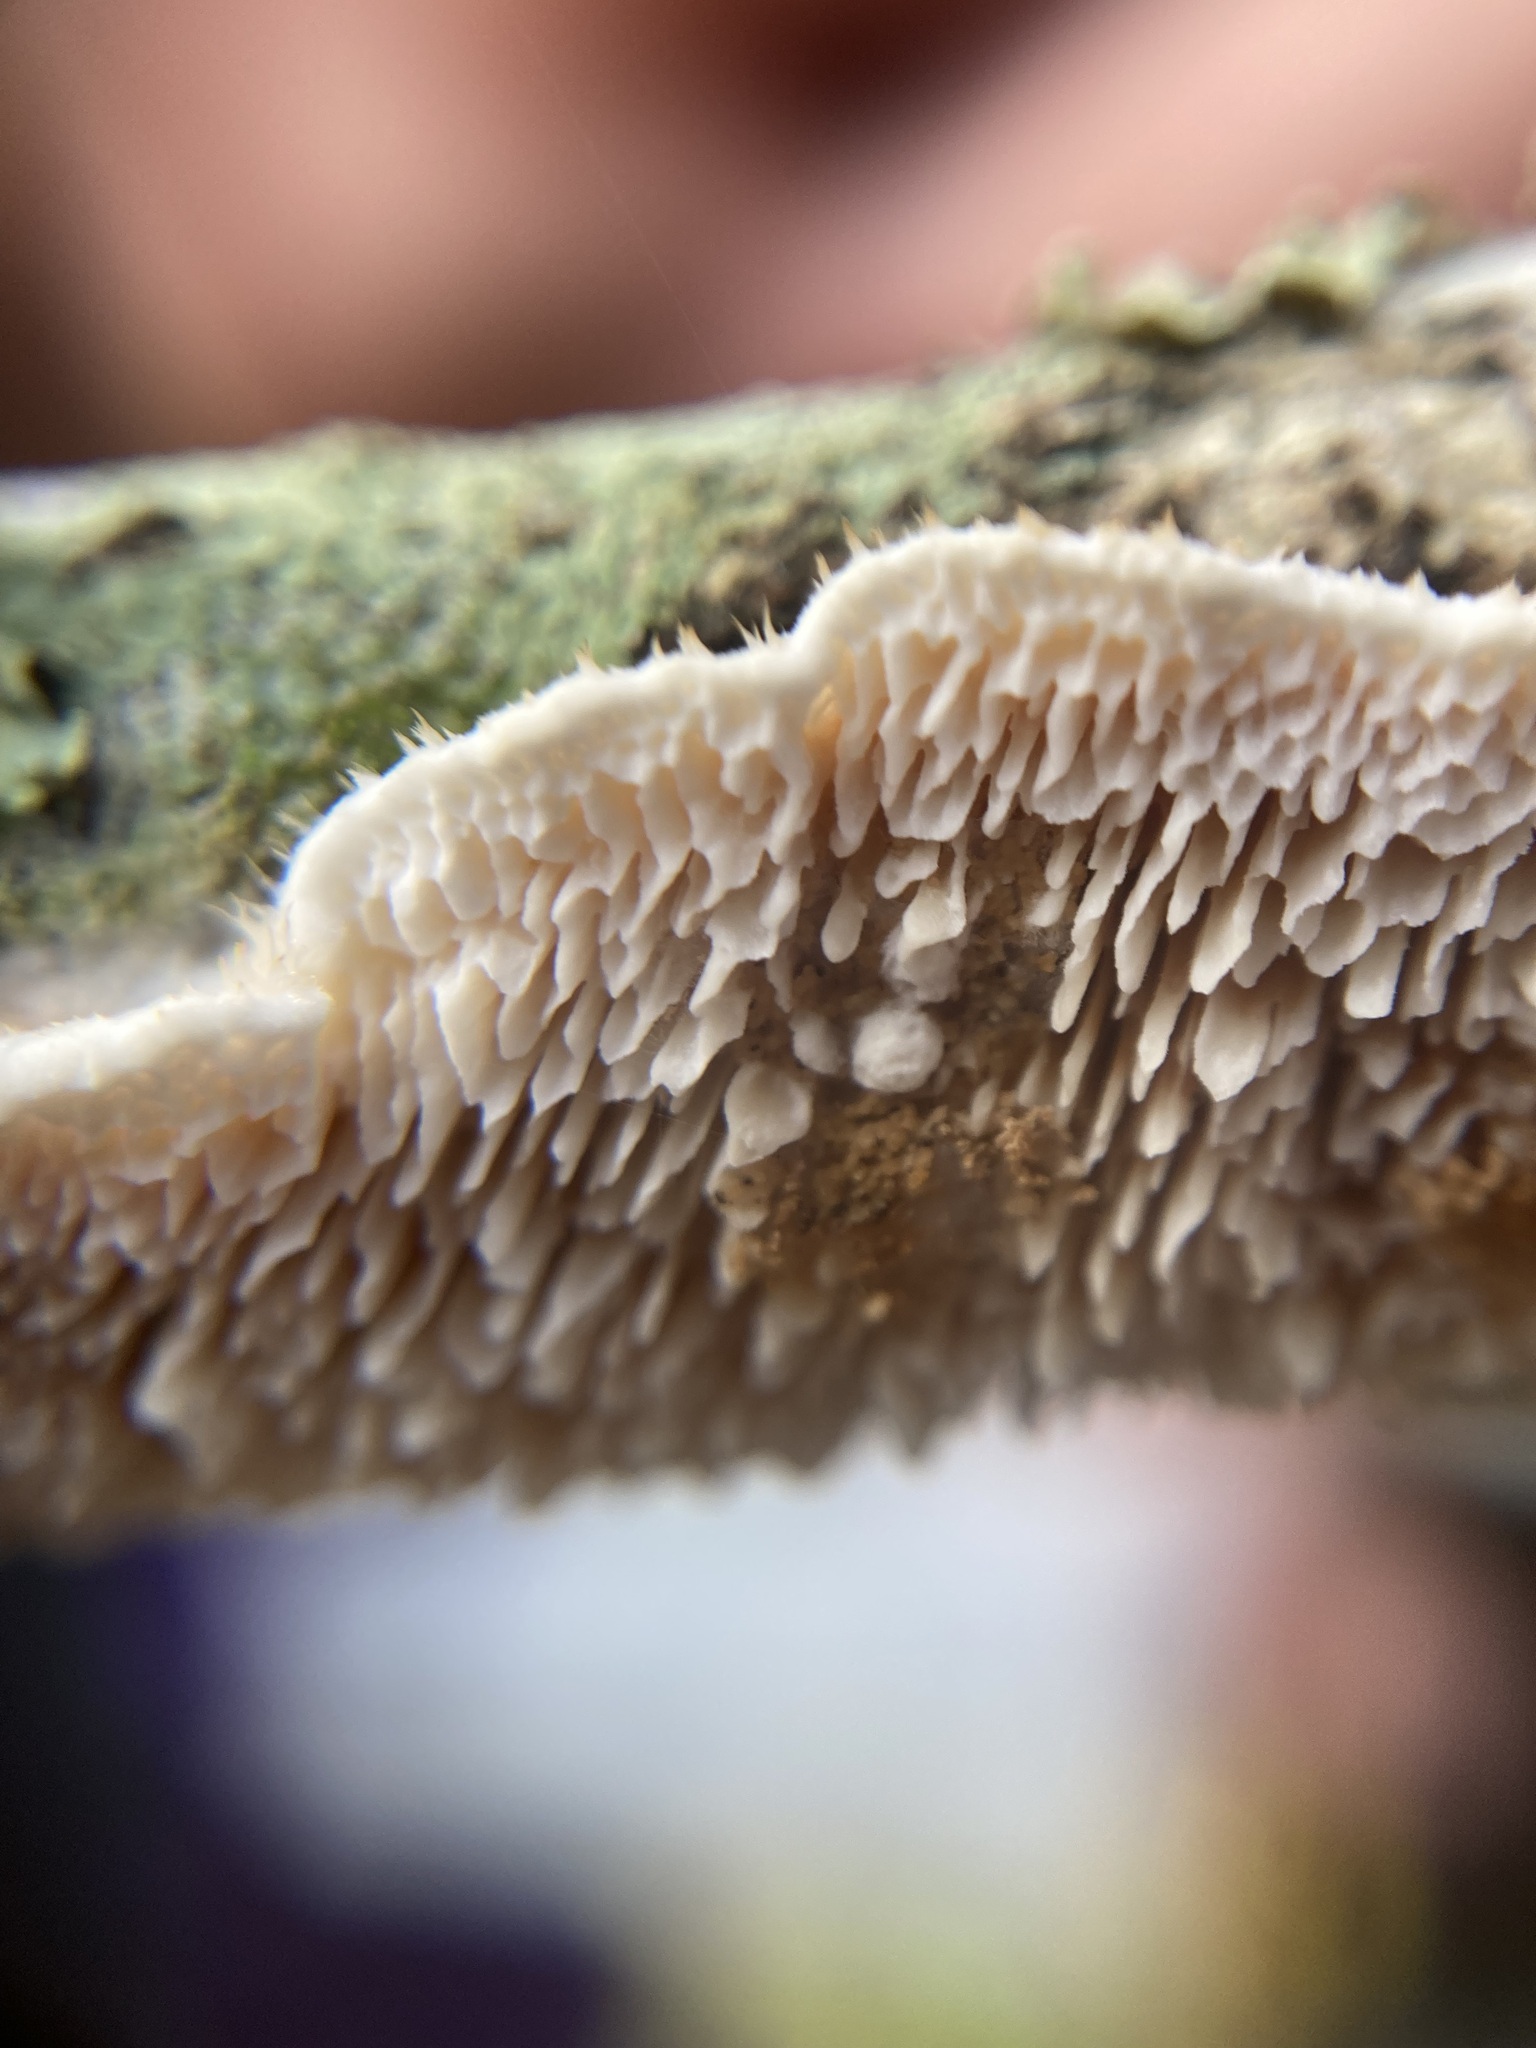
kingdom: Fungi
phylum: Basidiomycota
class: Agaricomycetes
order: Polyporales
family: Irpicaceae
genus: Irpex
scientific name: Irpex lacteus
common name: Milk-white toothed polypore
